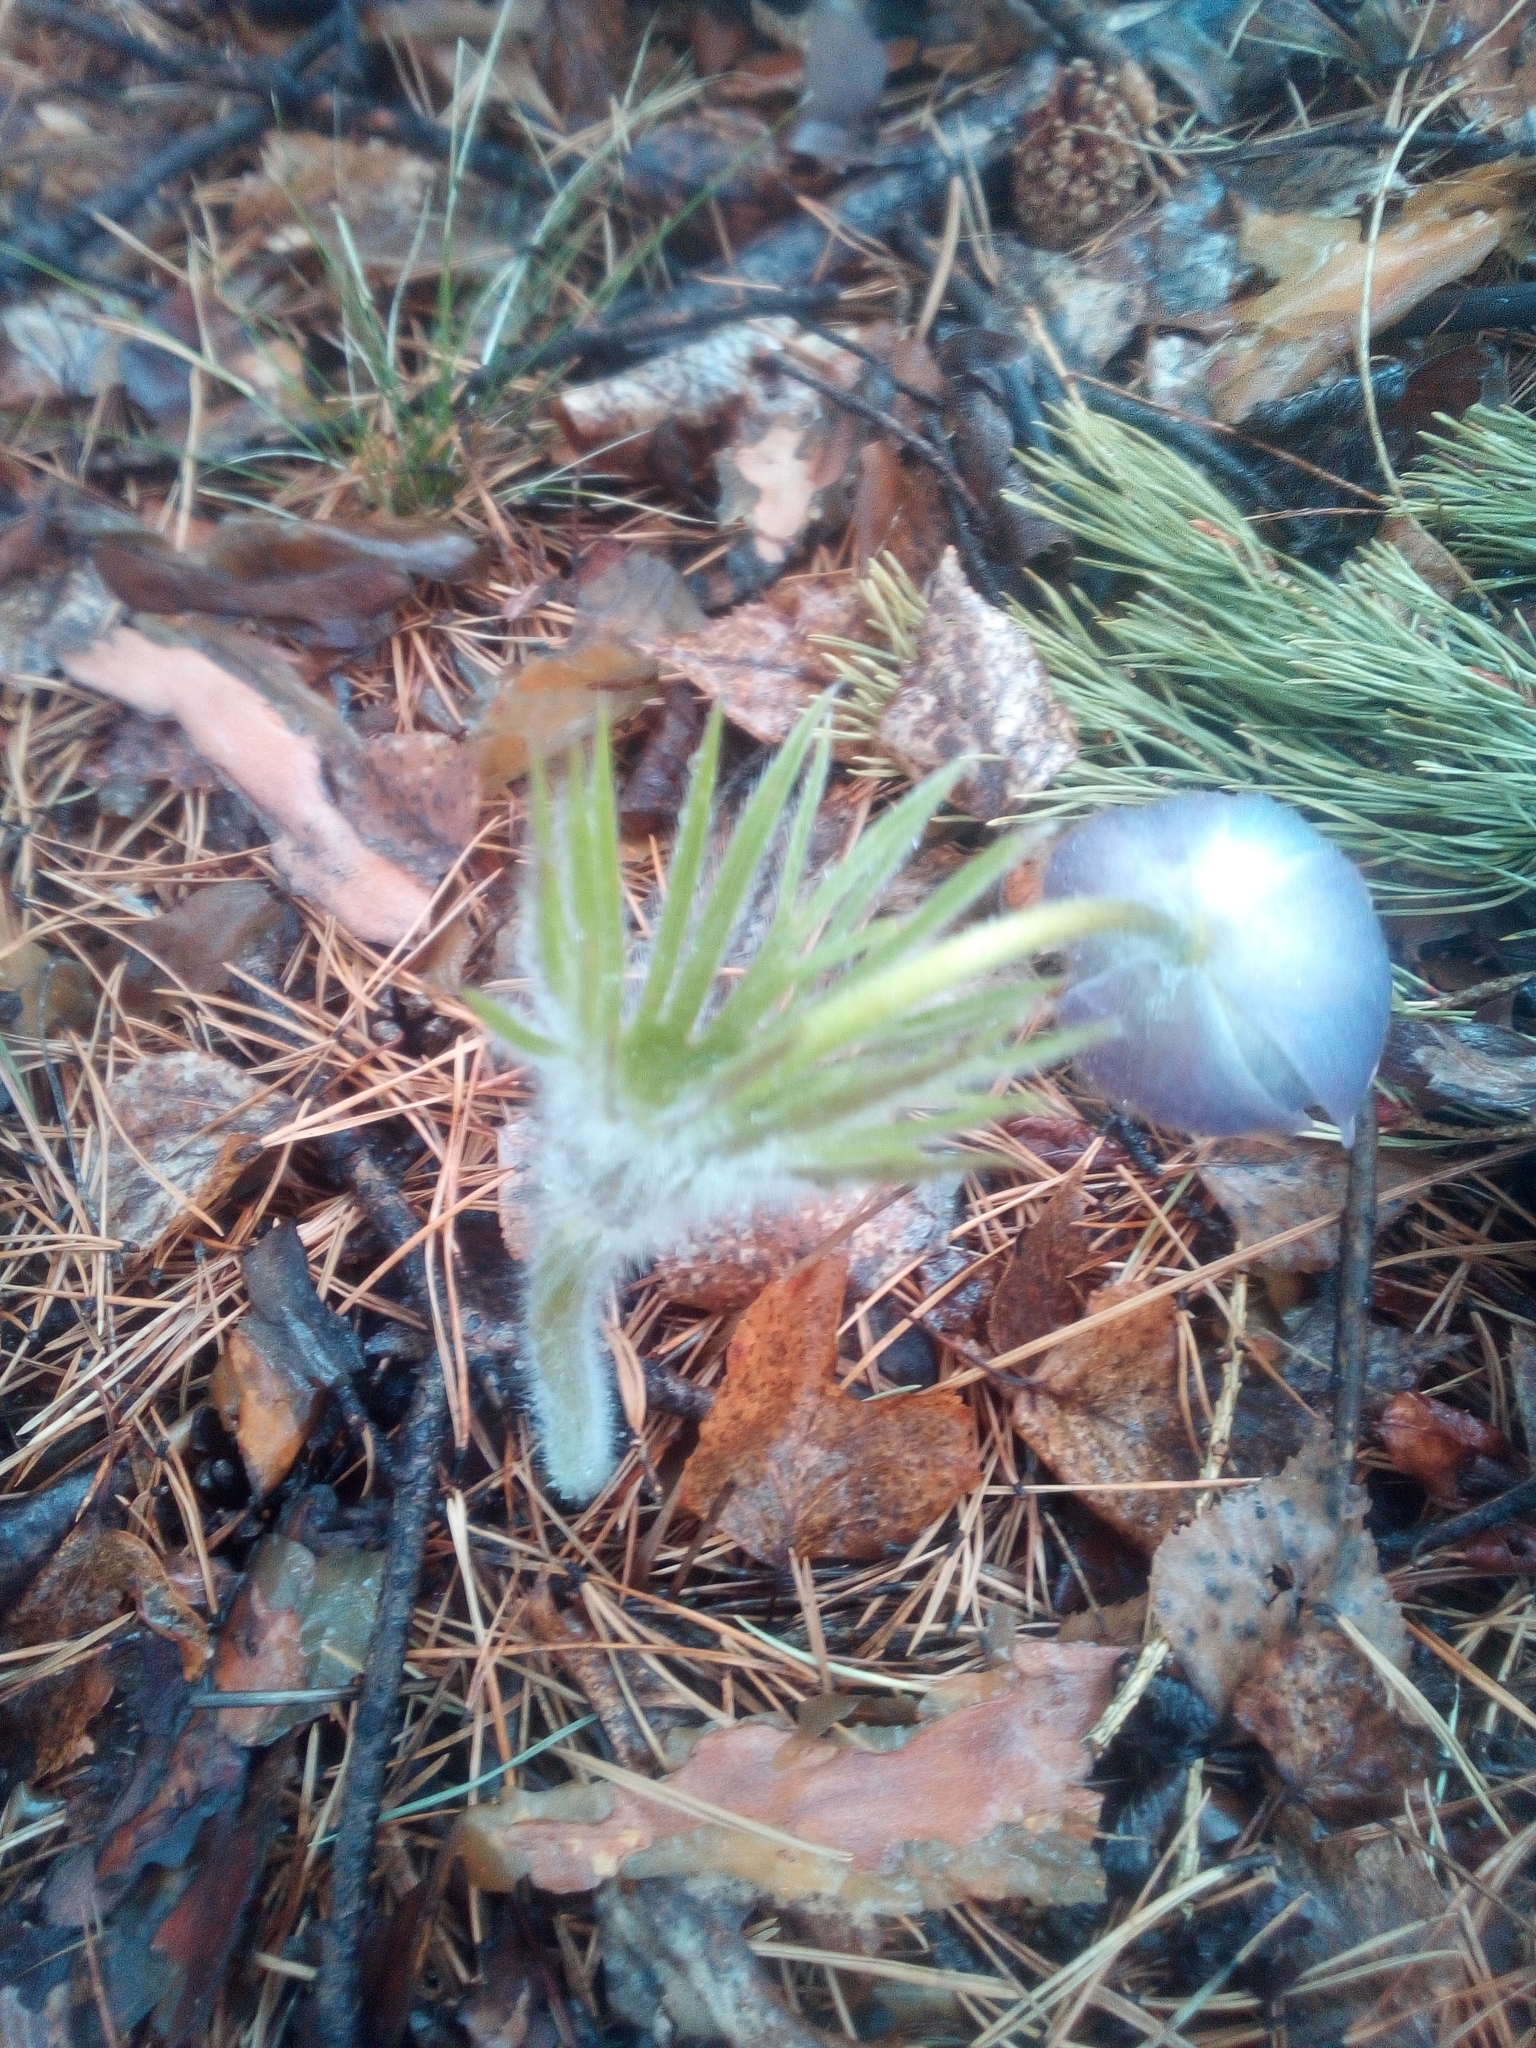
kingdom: Plantae
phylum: Tracheophyta
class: Magnoliopsida
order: Ranunculales
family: Ranunculaceae
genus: Pulsatilla
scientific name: Pulsatilla patens
